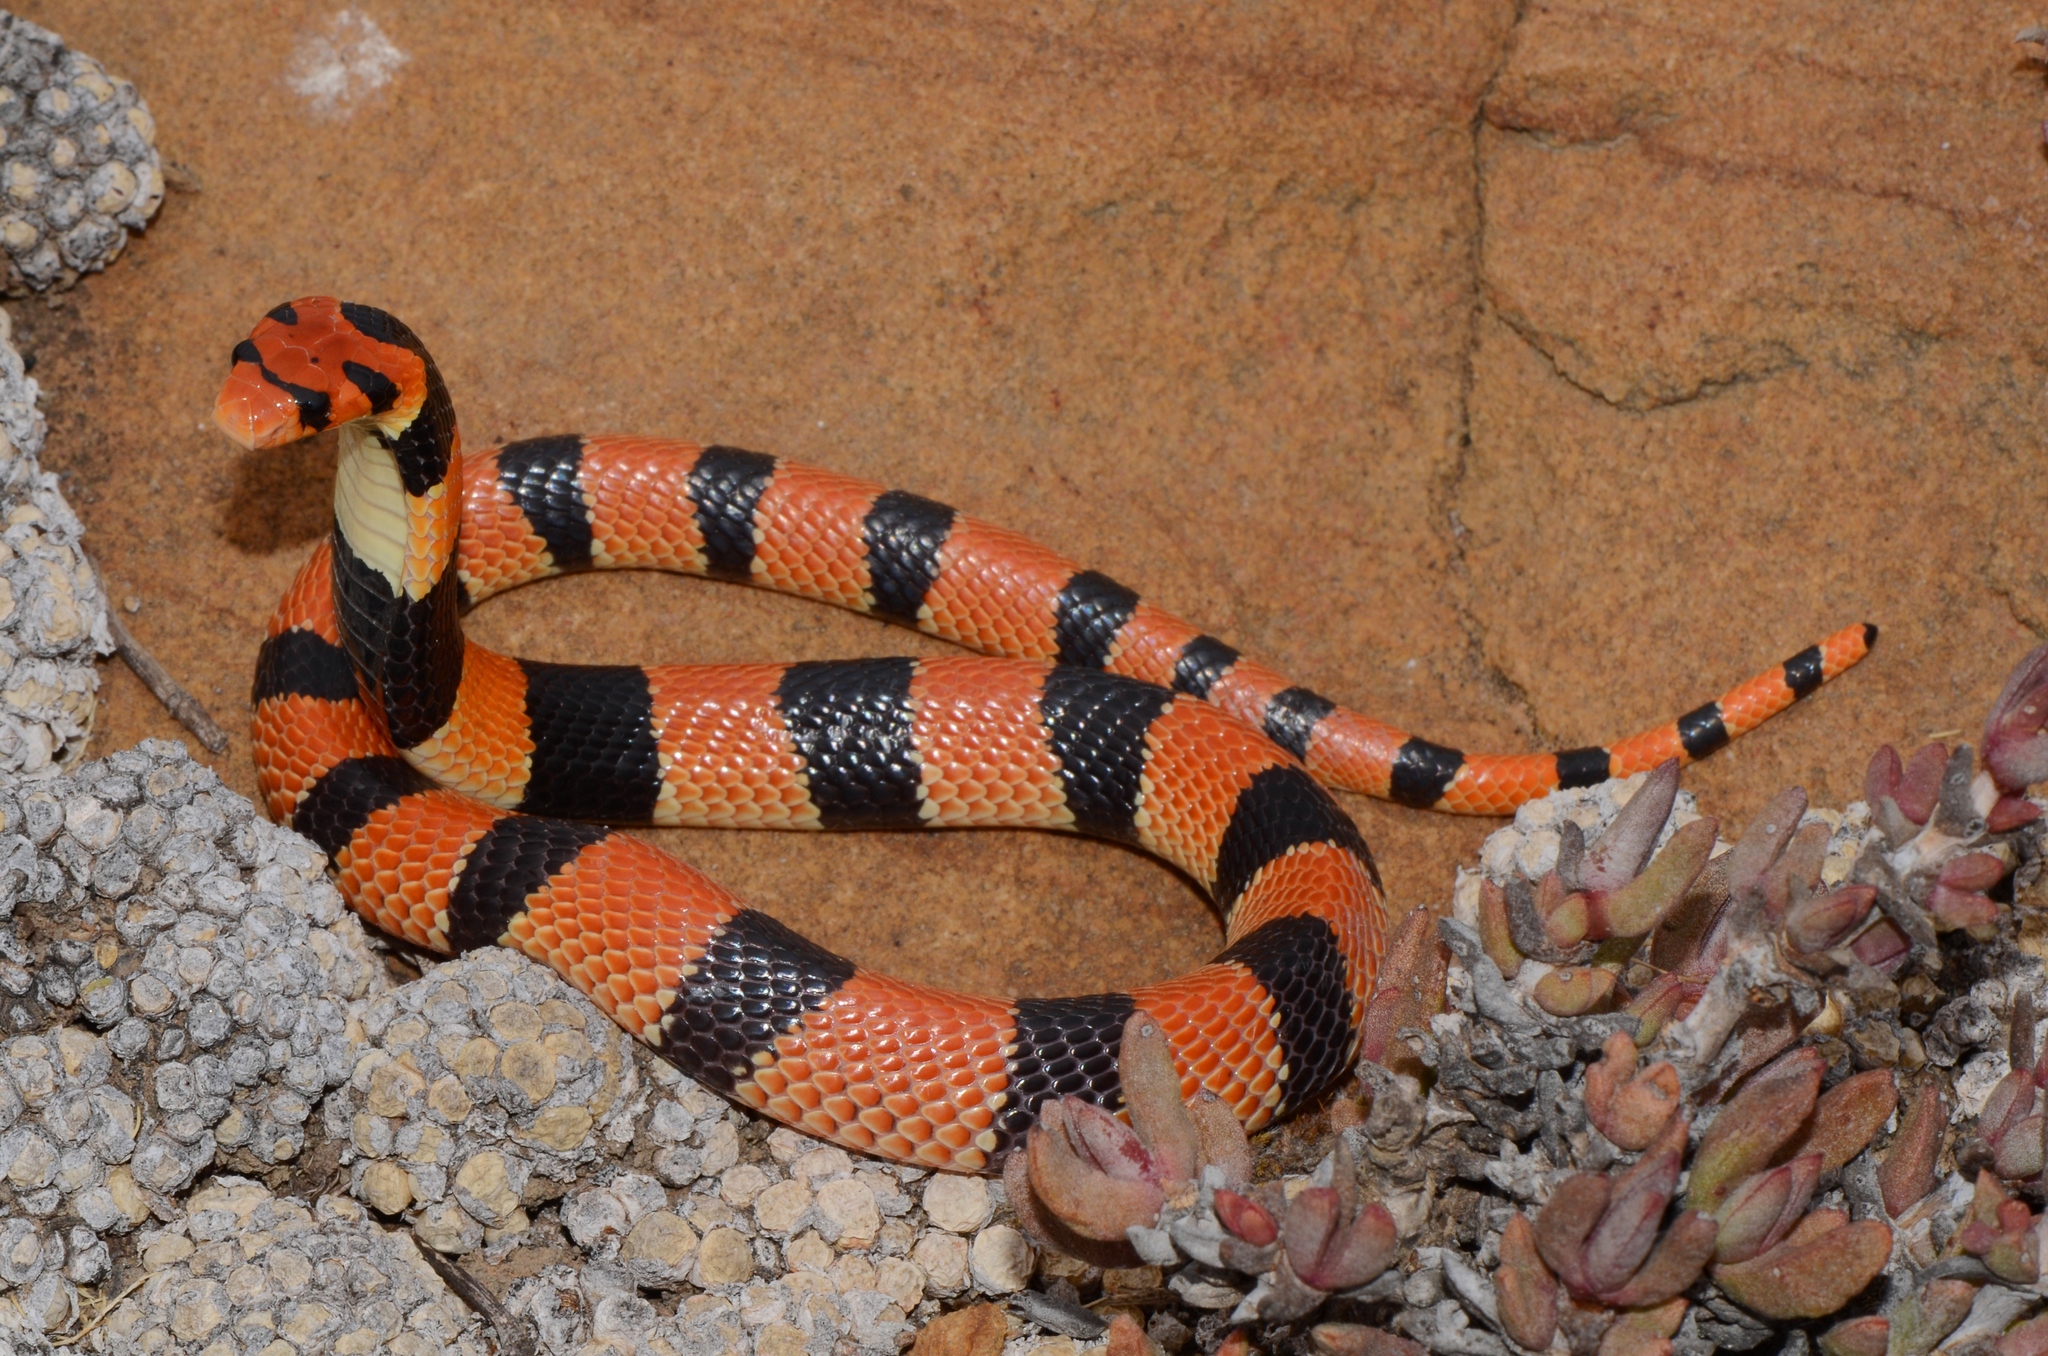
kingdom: Animalia
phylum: Chordata
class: Squamata
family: Elapidae
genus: Aspidelaps
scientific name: Aspidelaps lubricus
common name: Coral shield cobra
